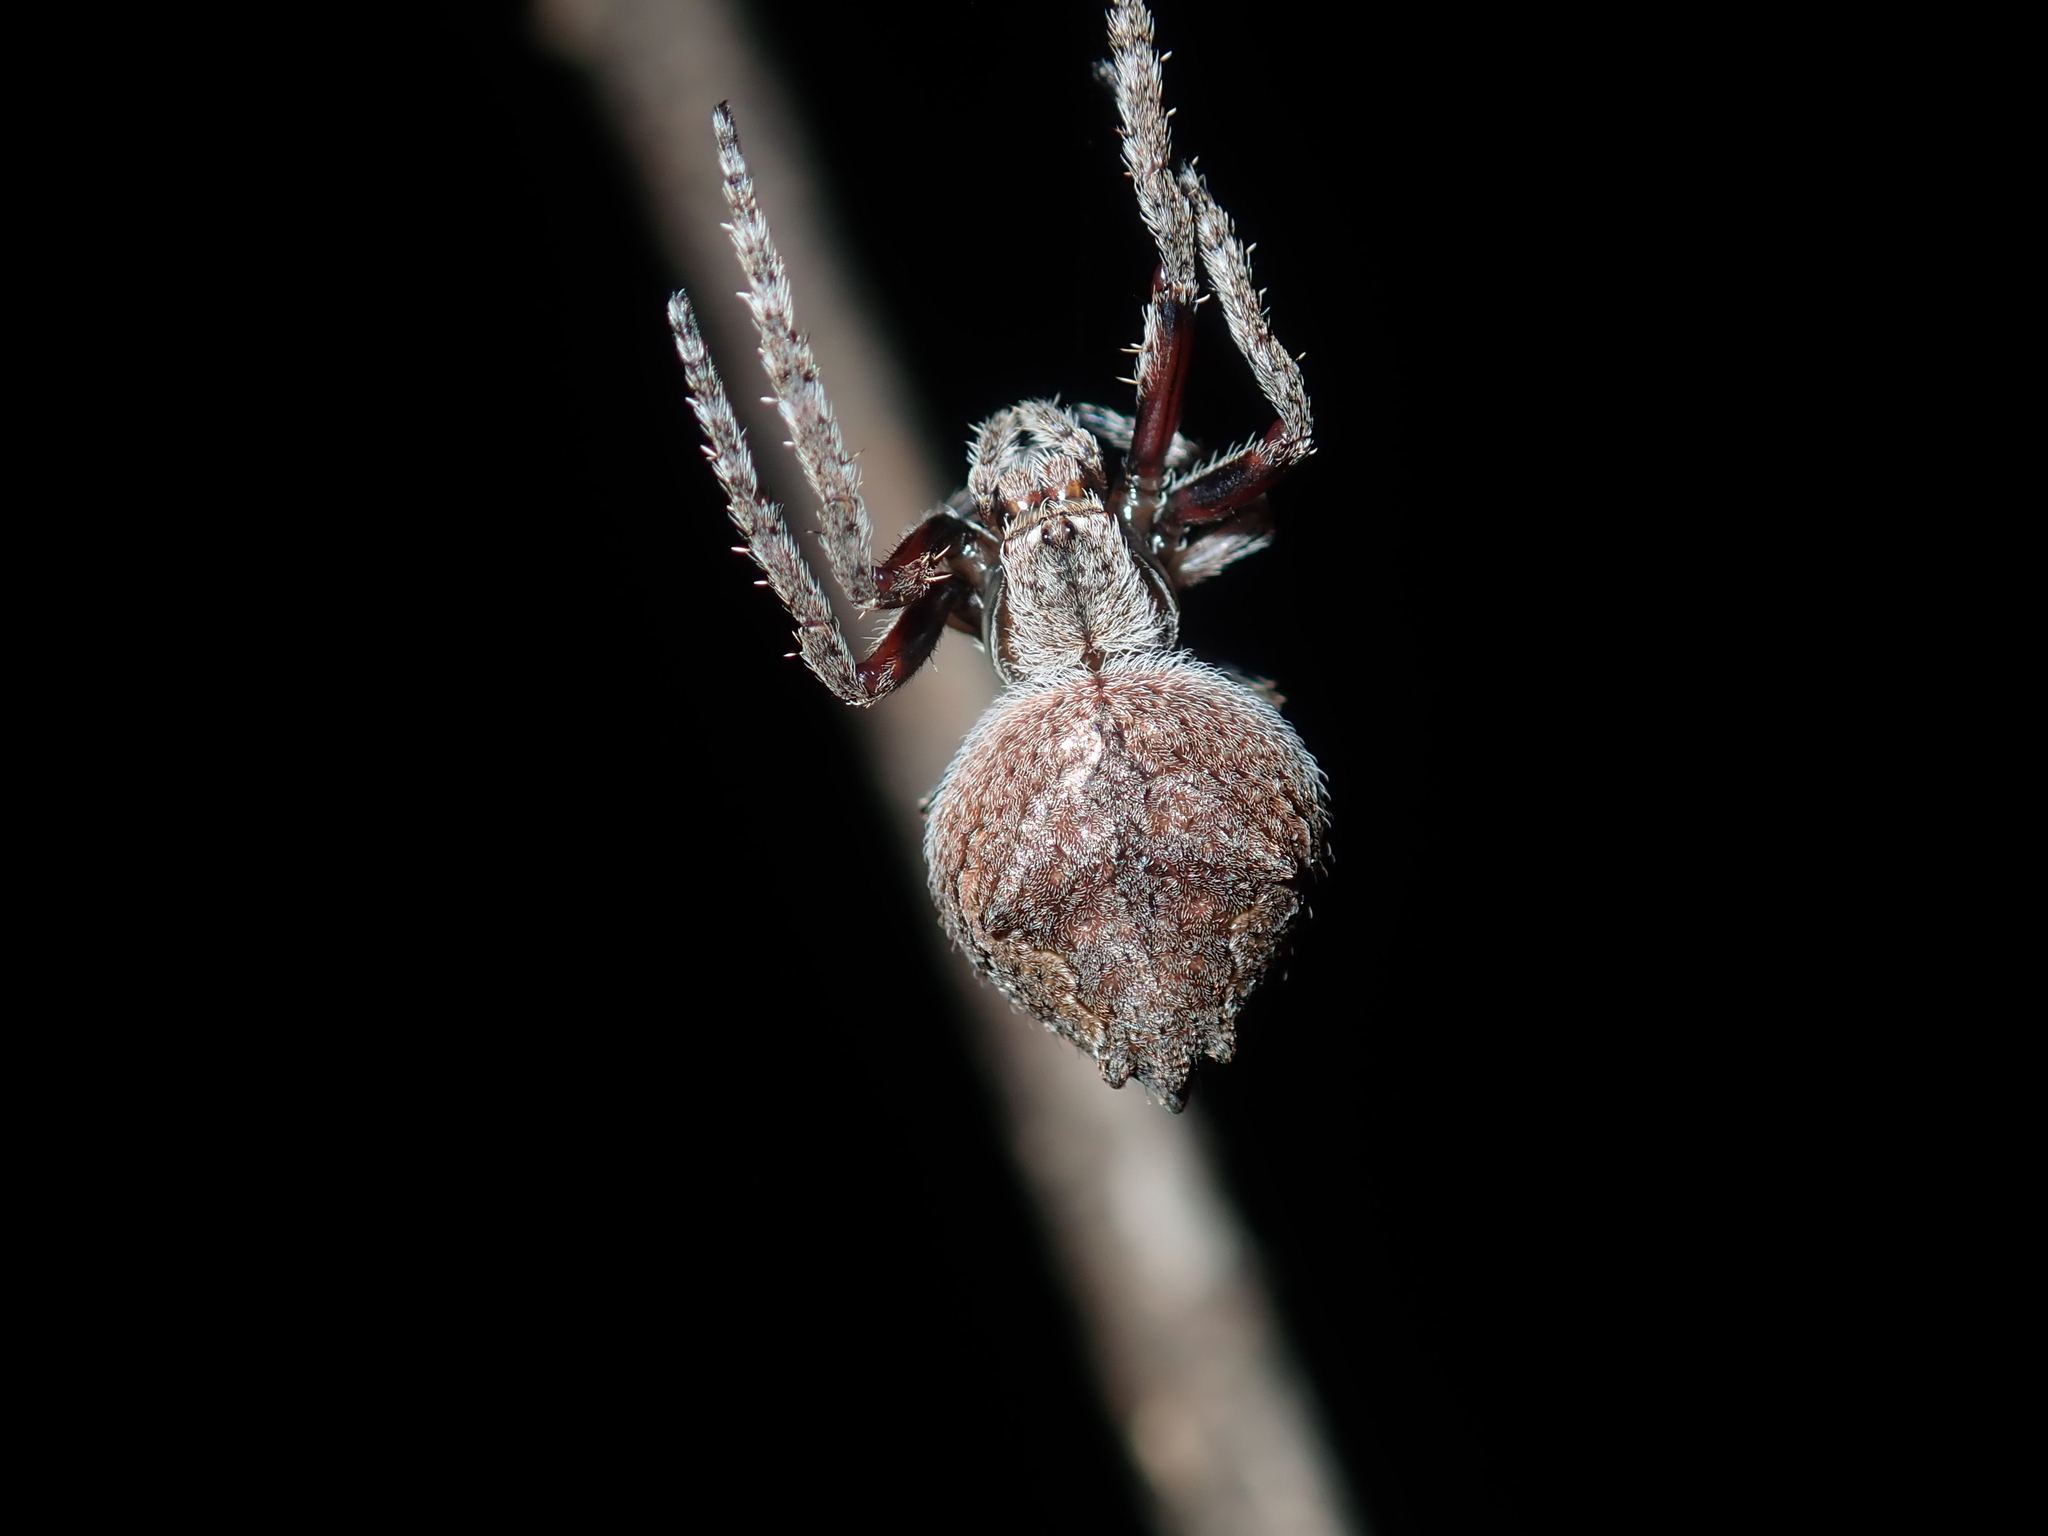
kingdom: Animalia
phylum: Arthropoda
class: Arachnida
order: Araneae
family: Araneidae
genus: Eriophora
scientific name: Eriophora pustulosa
